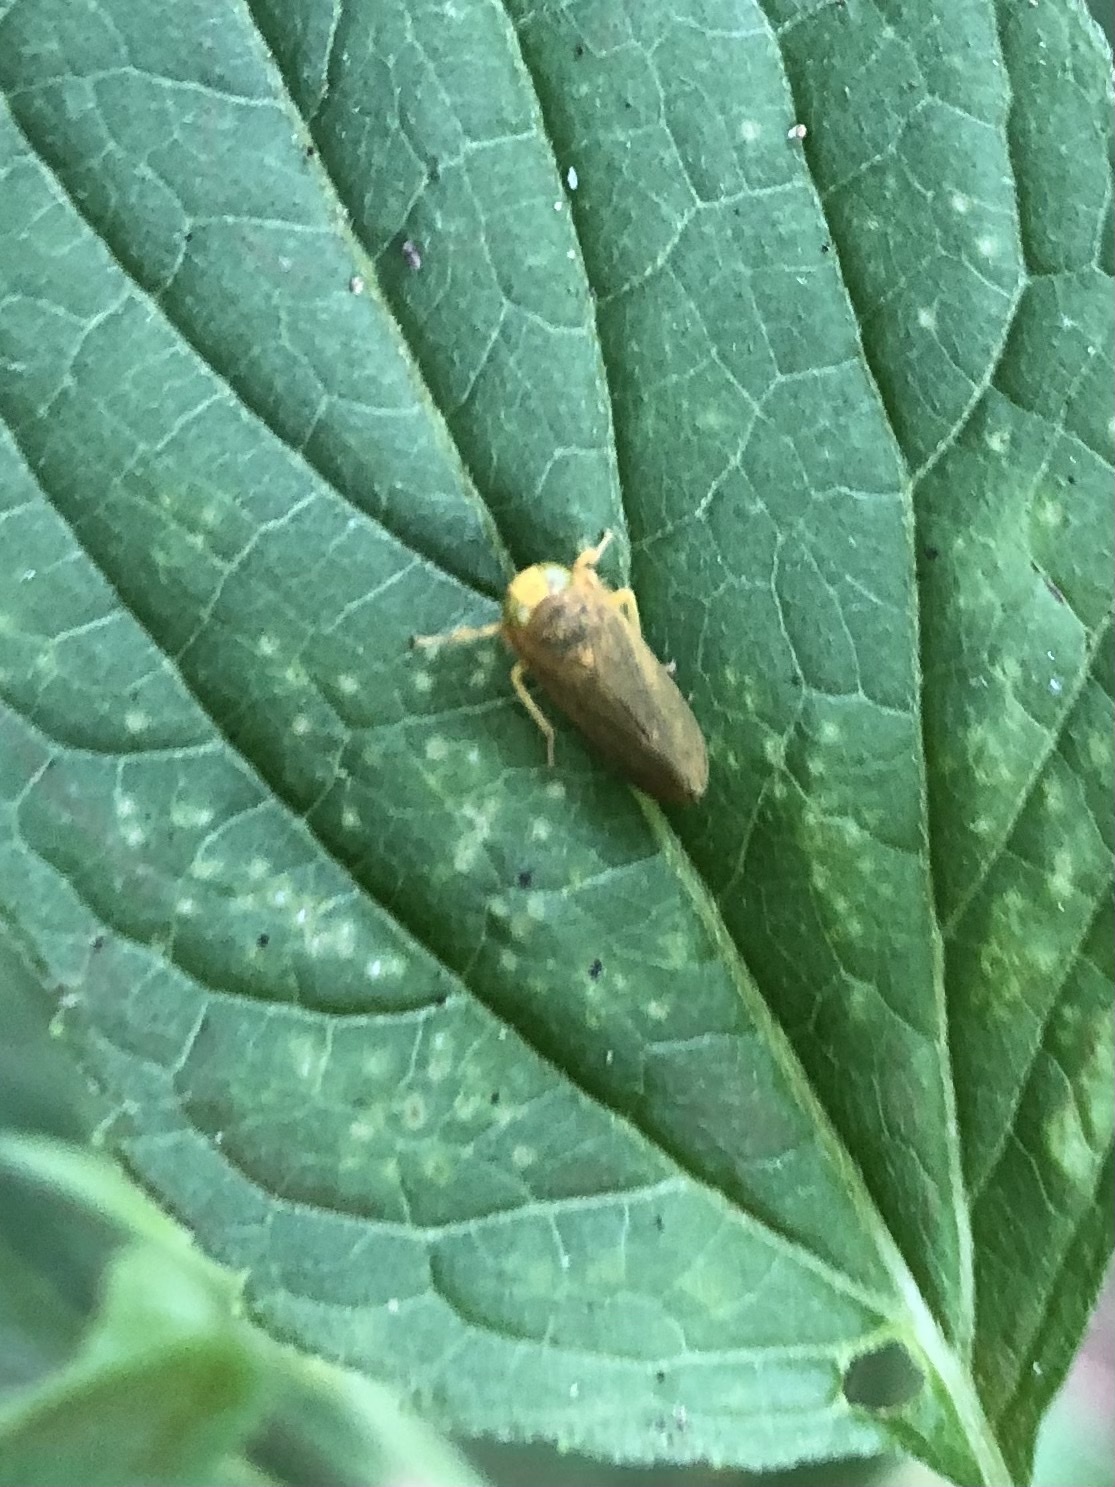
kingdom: Animalia
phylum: Arthropoda
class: Insecta
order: Hemiptera
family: Cicadellidae
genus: Jikradia
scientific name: Jikradia olitoria
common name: Coppery leafhopper
